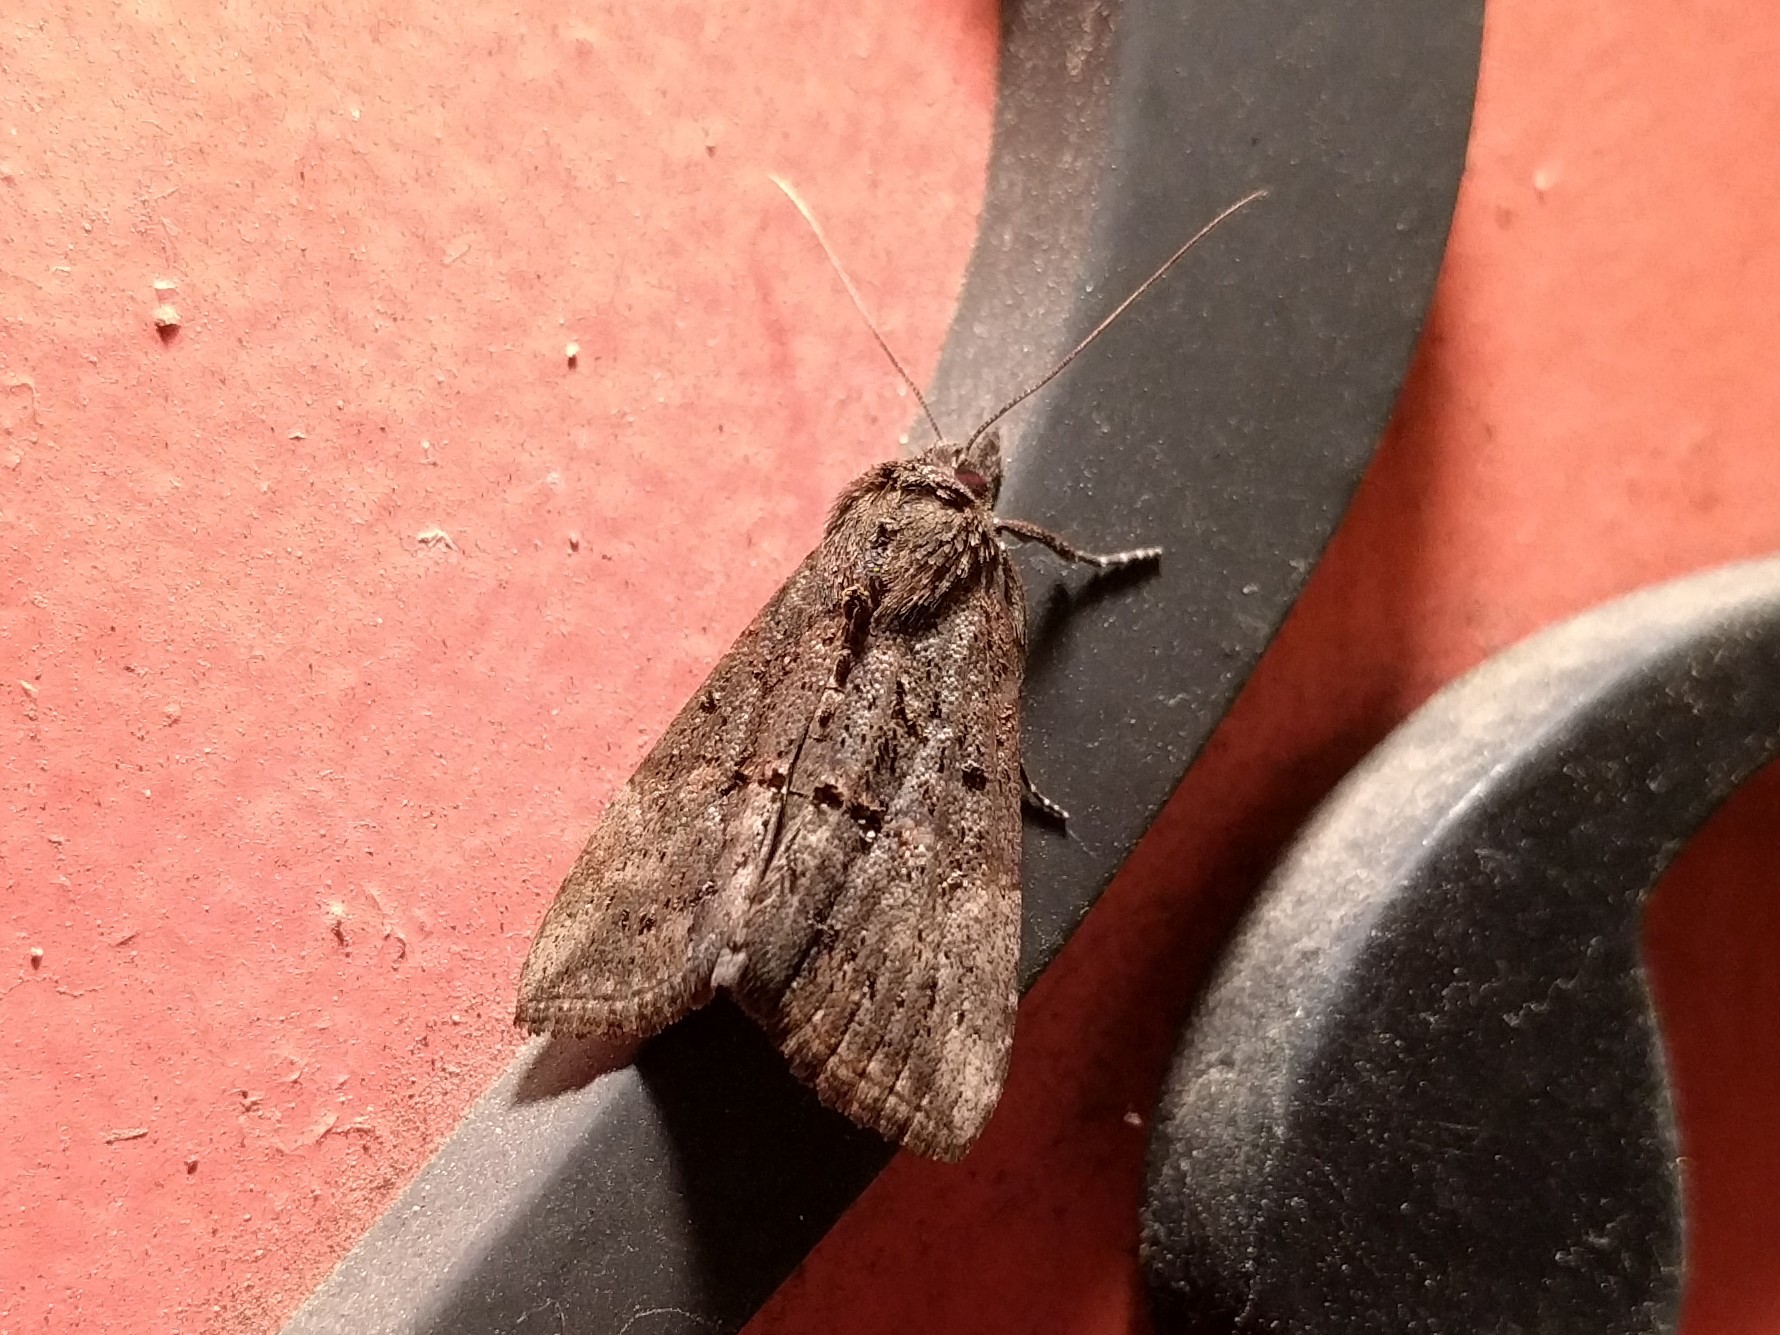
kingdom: Animalia
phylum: Arthropoda
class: Insecta
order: Lepidoptera
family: Erebidae
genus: Hypena
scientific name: Hypena scabra
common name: Green cloverworm
